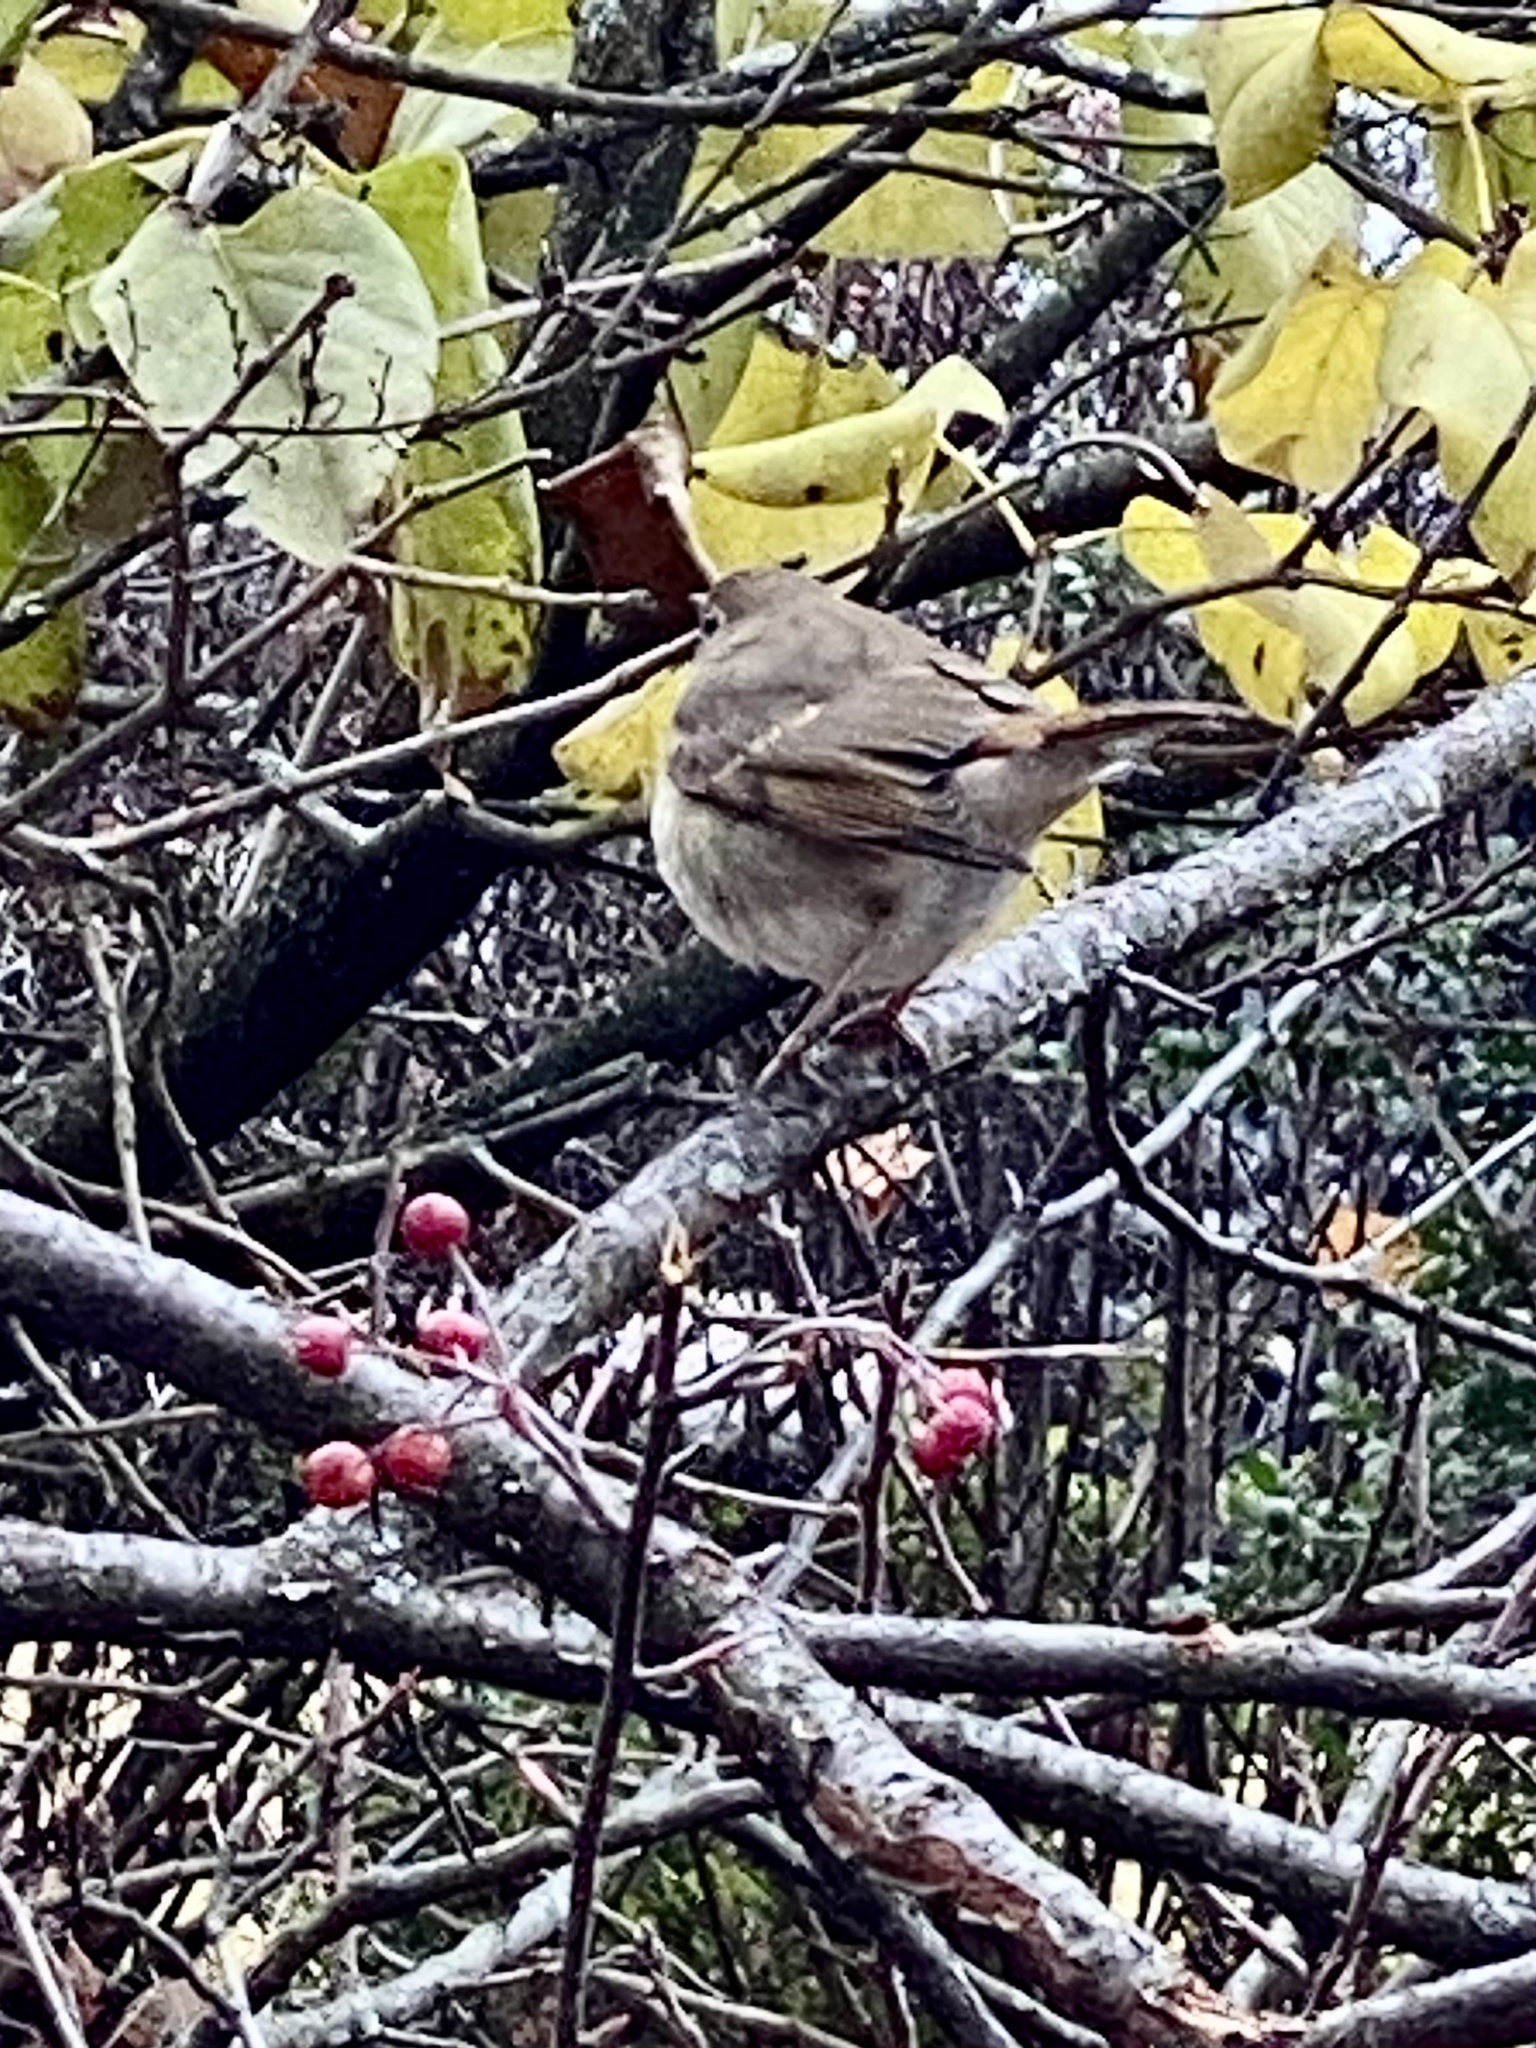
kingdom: Animalia
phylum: Chordata
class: Aves
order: Passeriformes
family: Turdidae
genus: Catharus
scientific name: Catharus guttatus
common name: Hermit thrush
